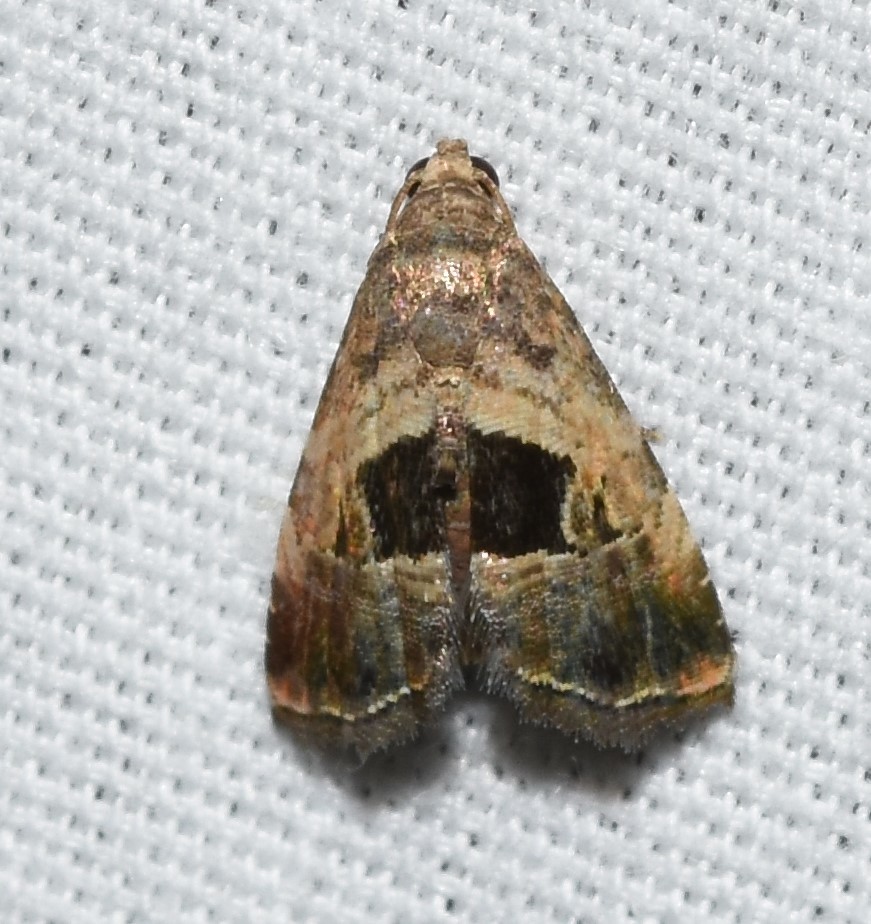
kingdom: Animalia
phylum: Arthropoda
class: Insecta
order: Lepidoptera
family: Noctuidae
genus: Tripudia
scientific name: Tripudia rectangula
